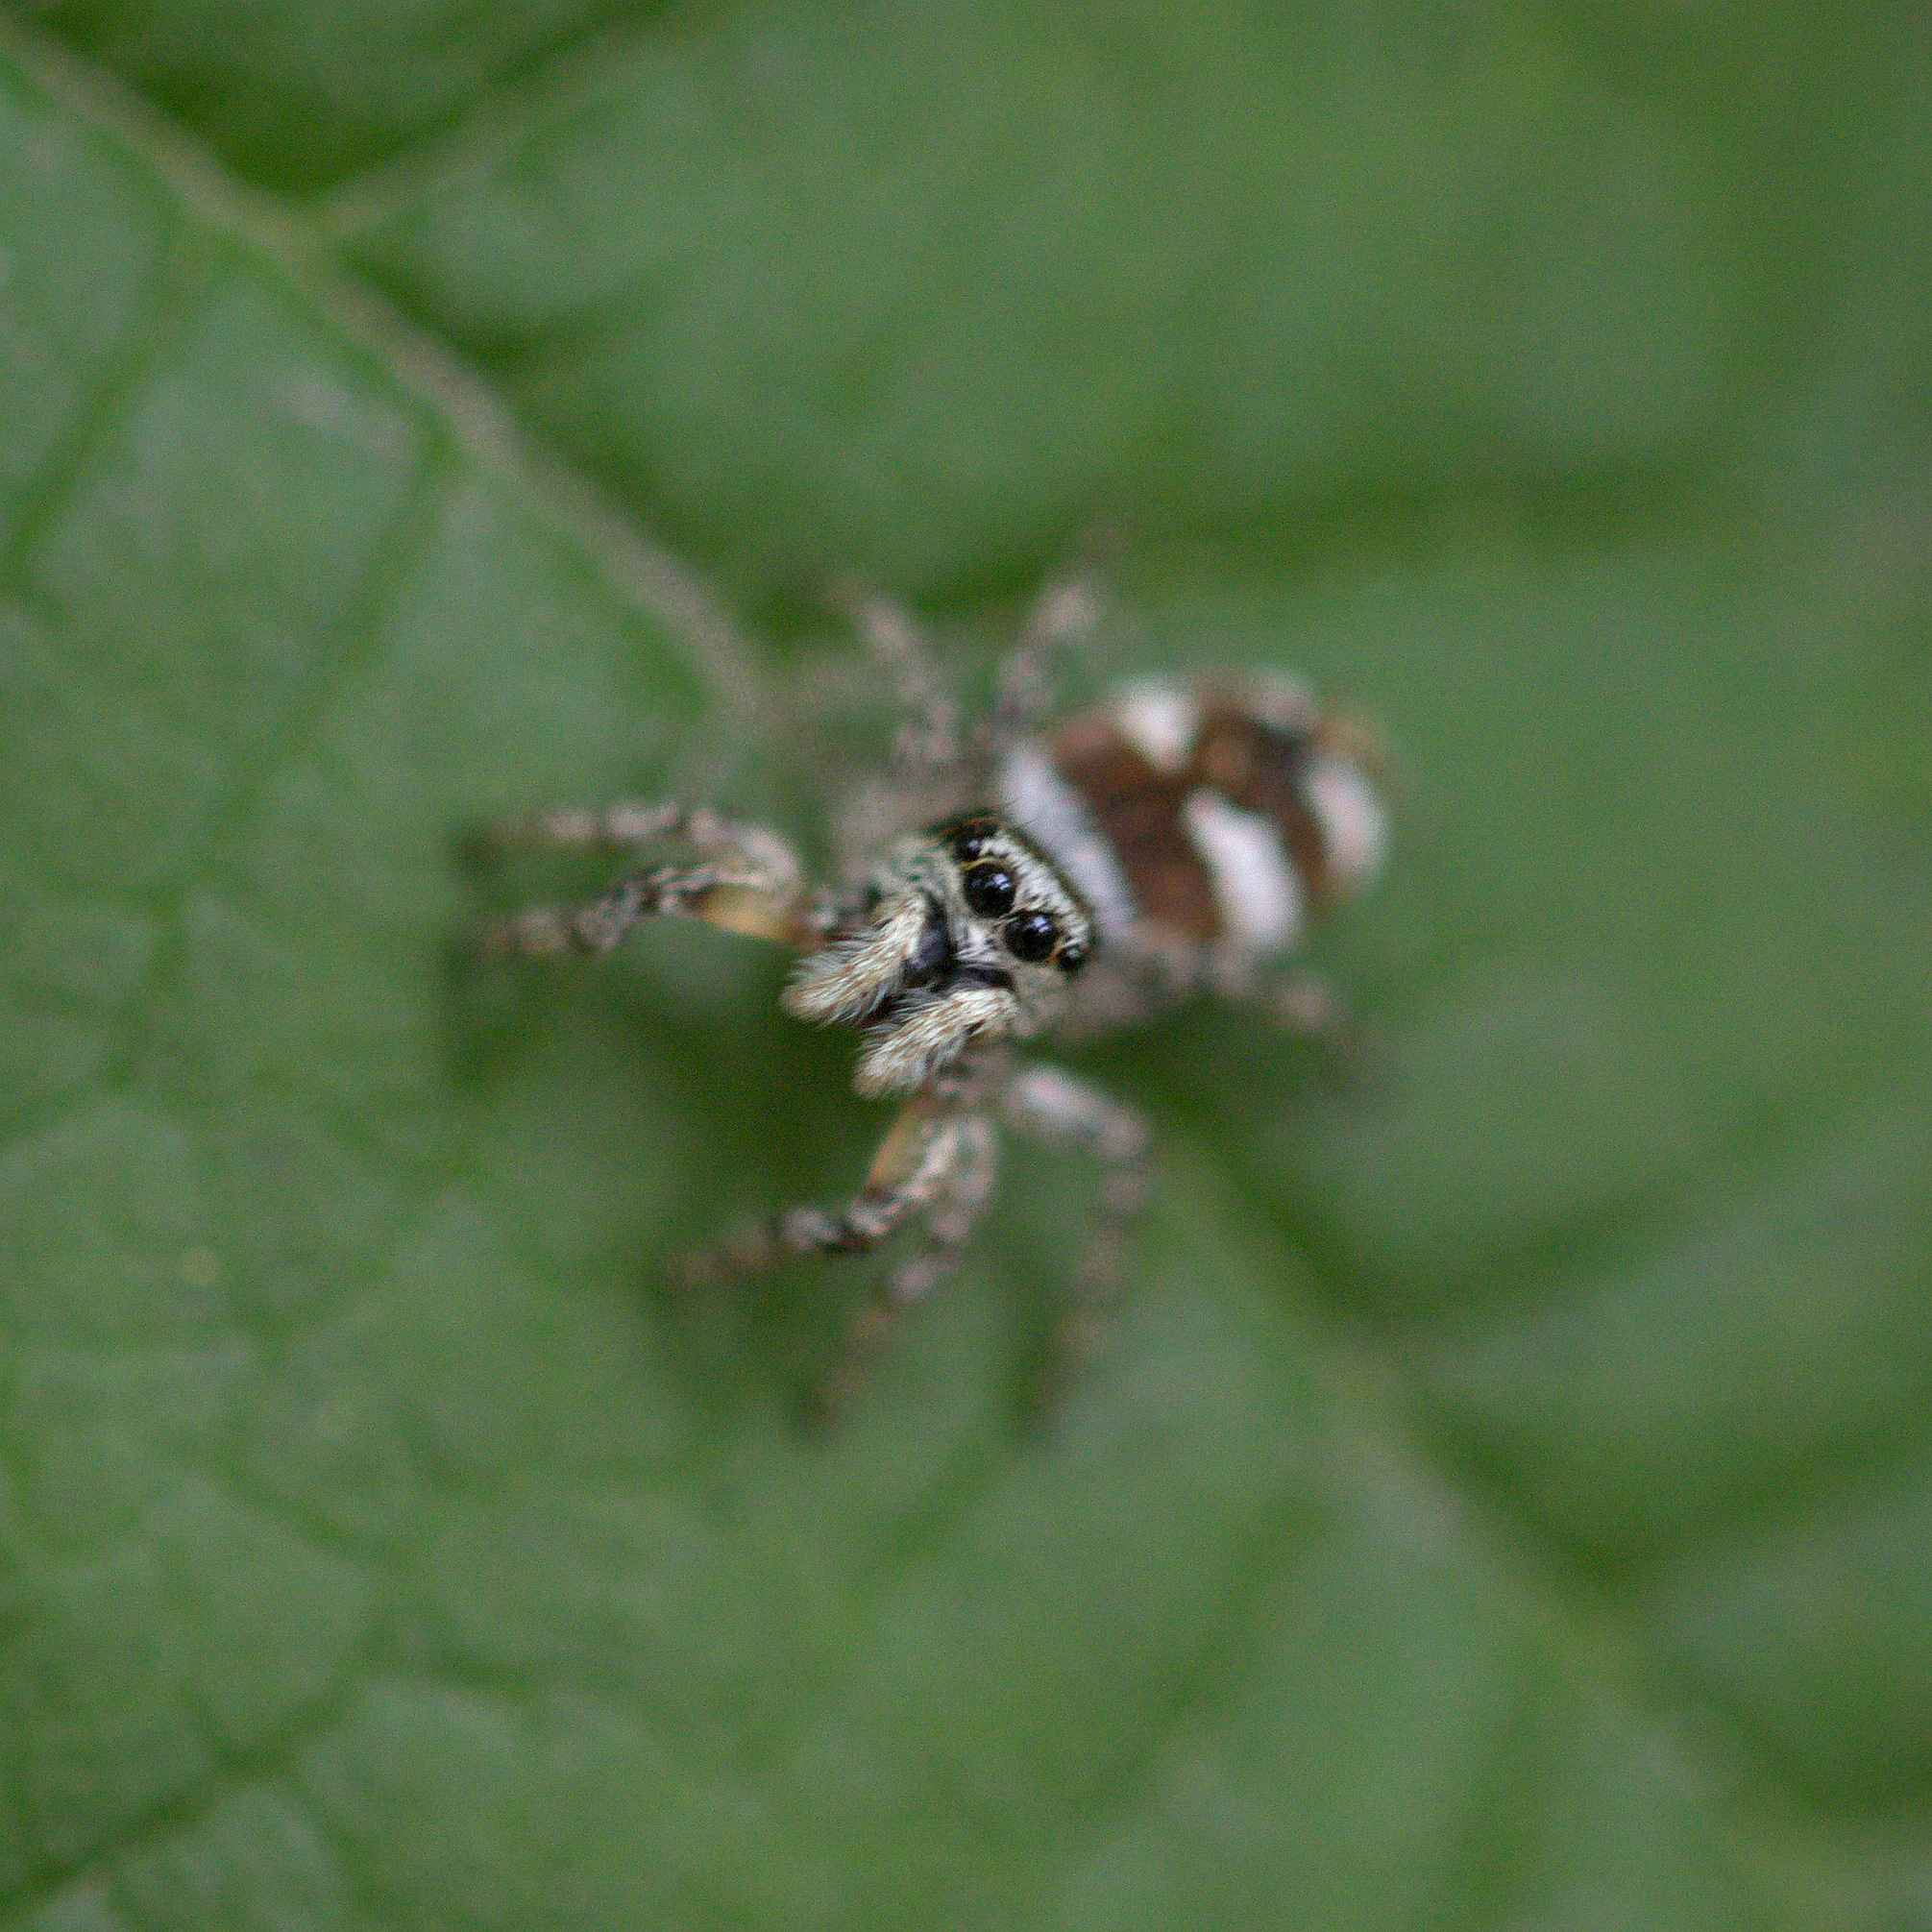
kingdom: Animalia
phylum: Arthropoda
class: Arachnida
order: Araneae
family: Salticidae
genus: Salticus
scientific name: Salticus scenicus
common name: Zebra jumper
